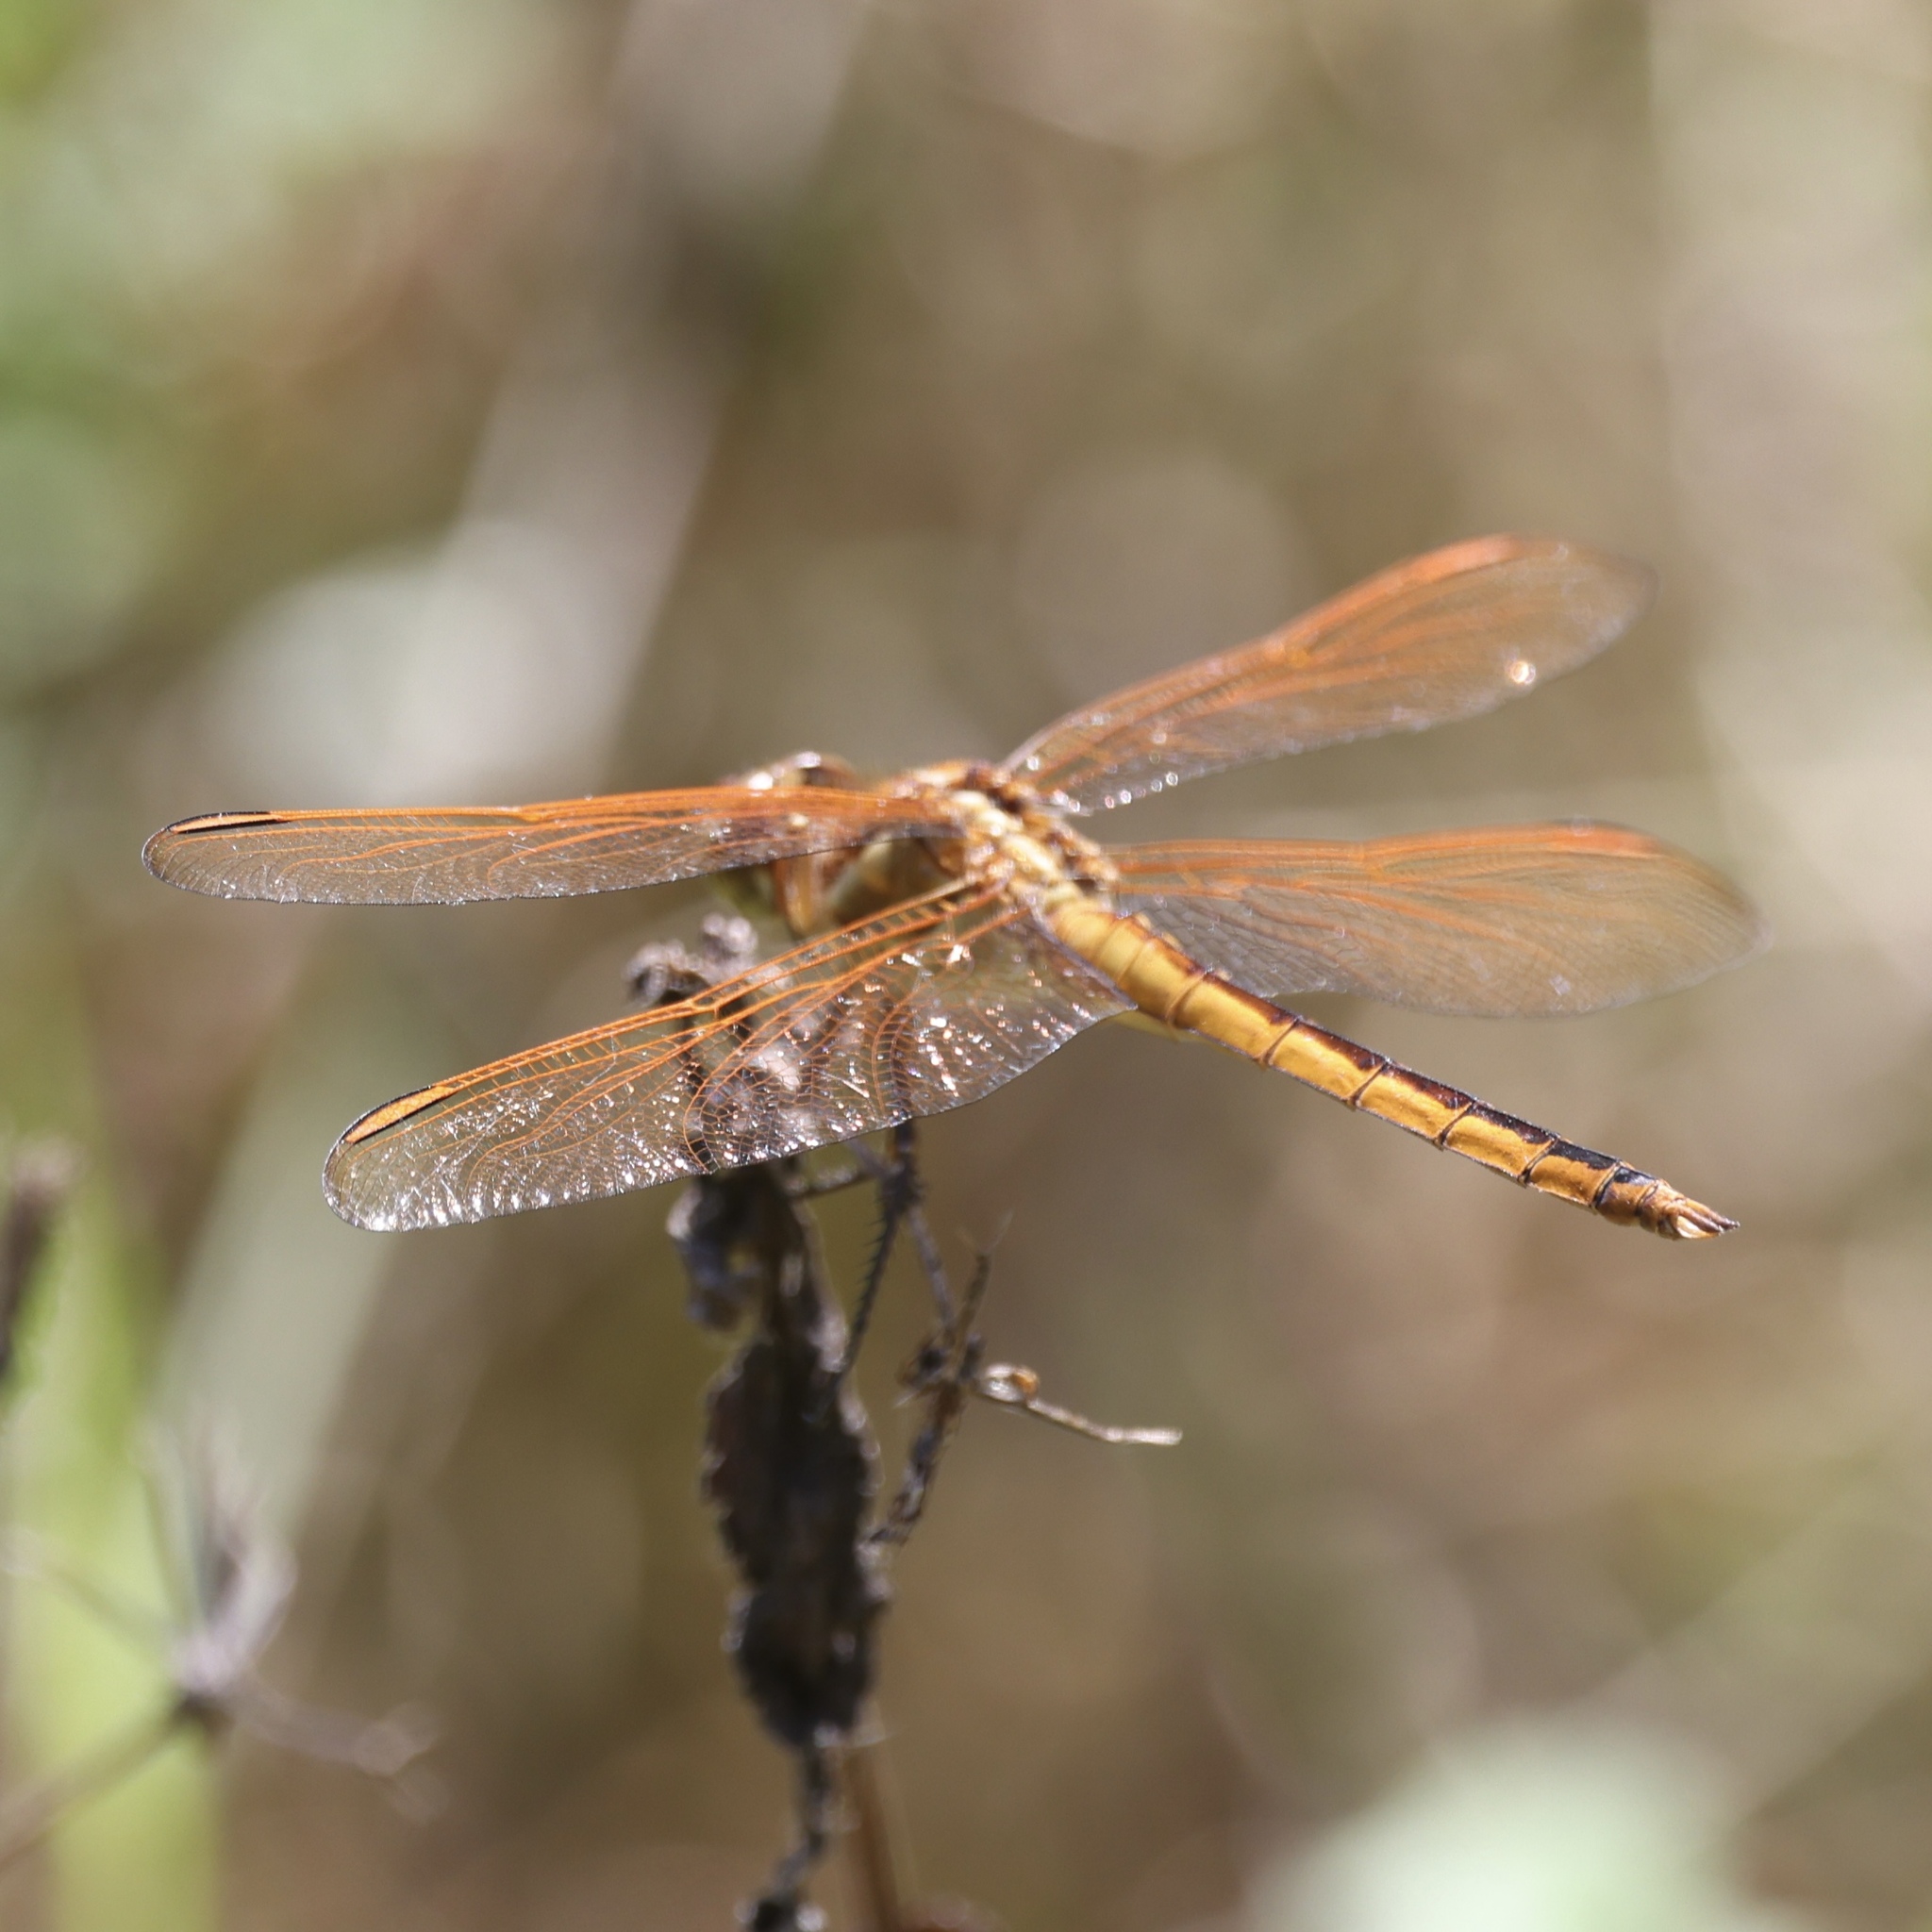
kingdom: Animalia
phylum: Arthropoda
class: Insecta
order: Odonata
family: Libellulidae
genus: Libellula
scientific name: Libellula auripennis
